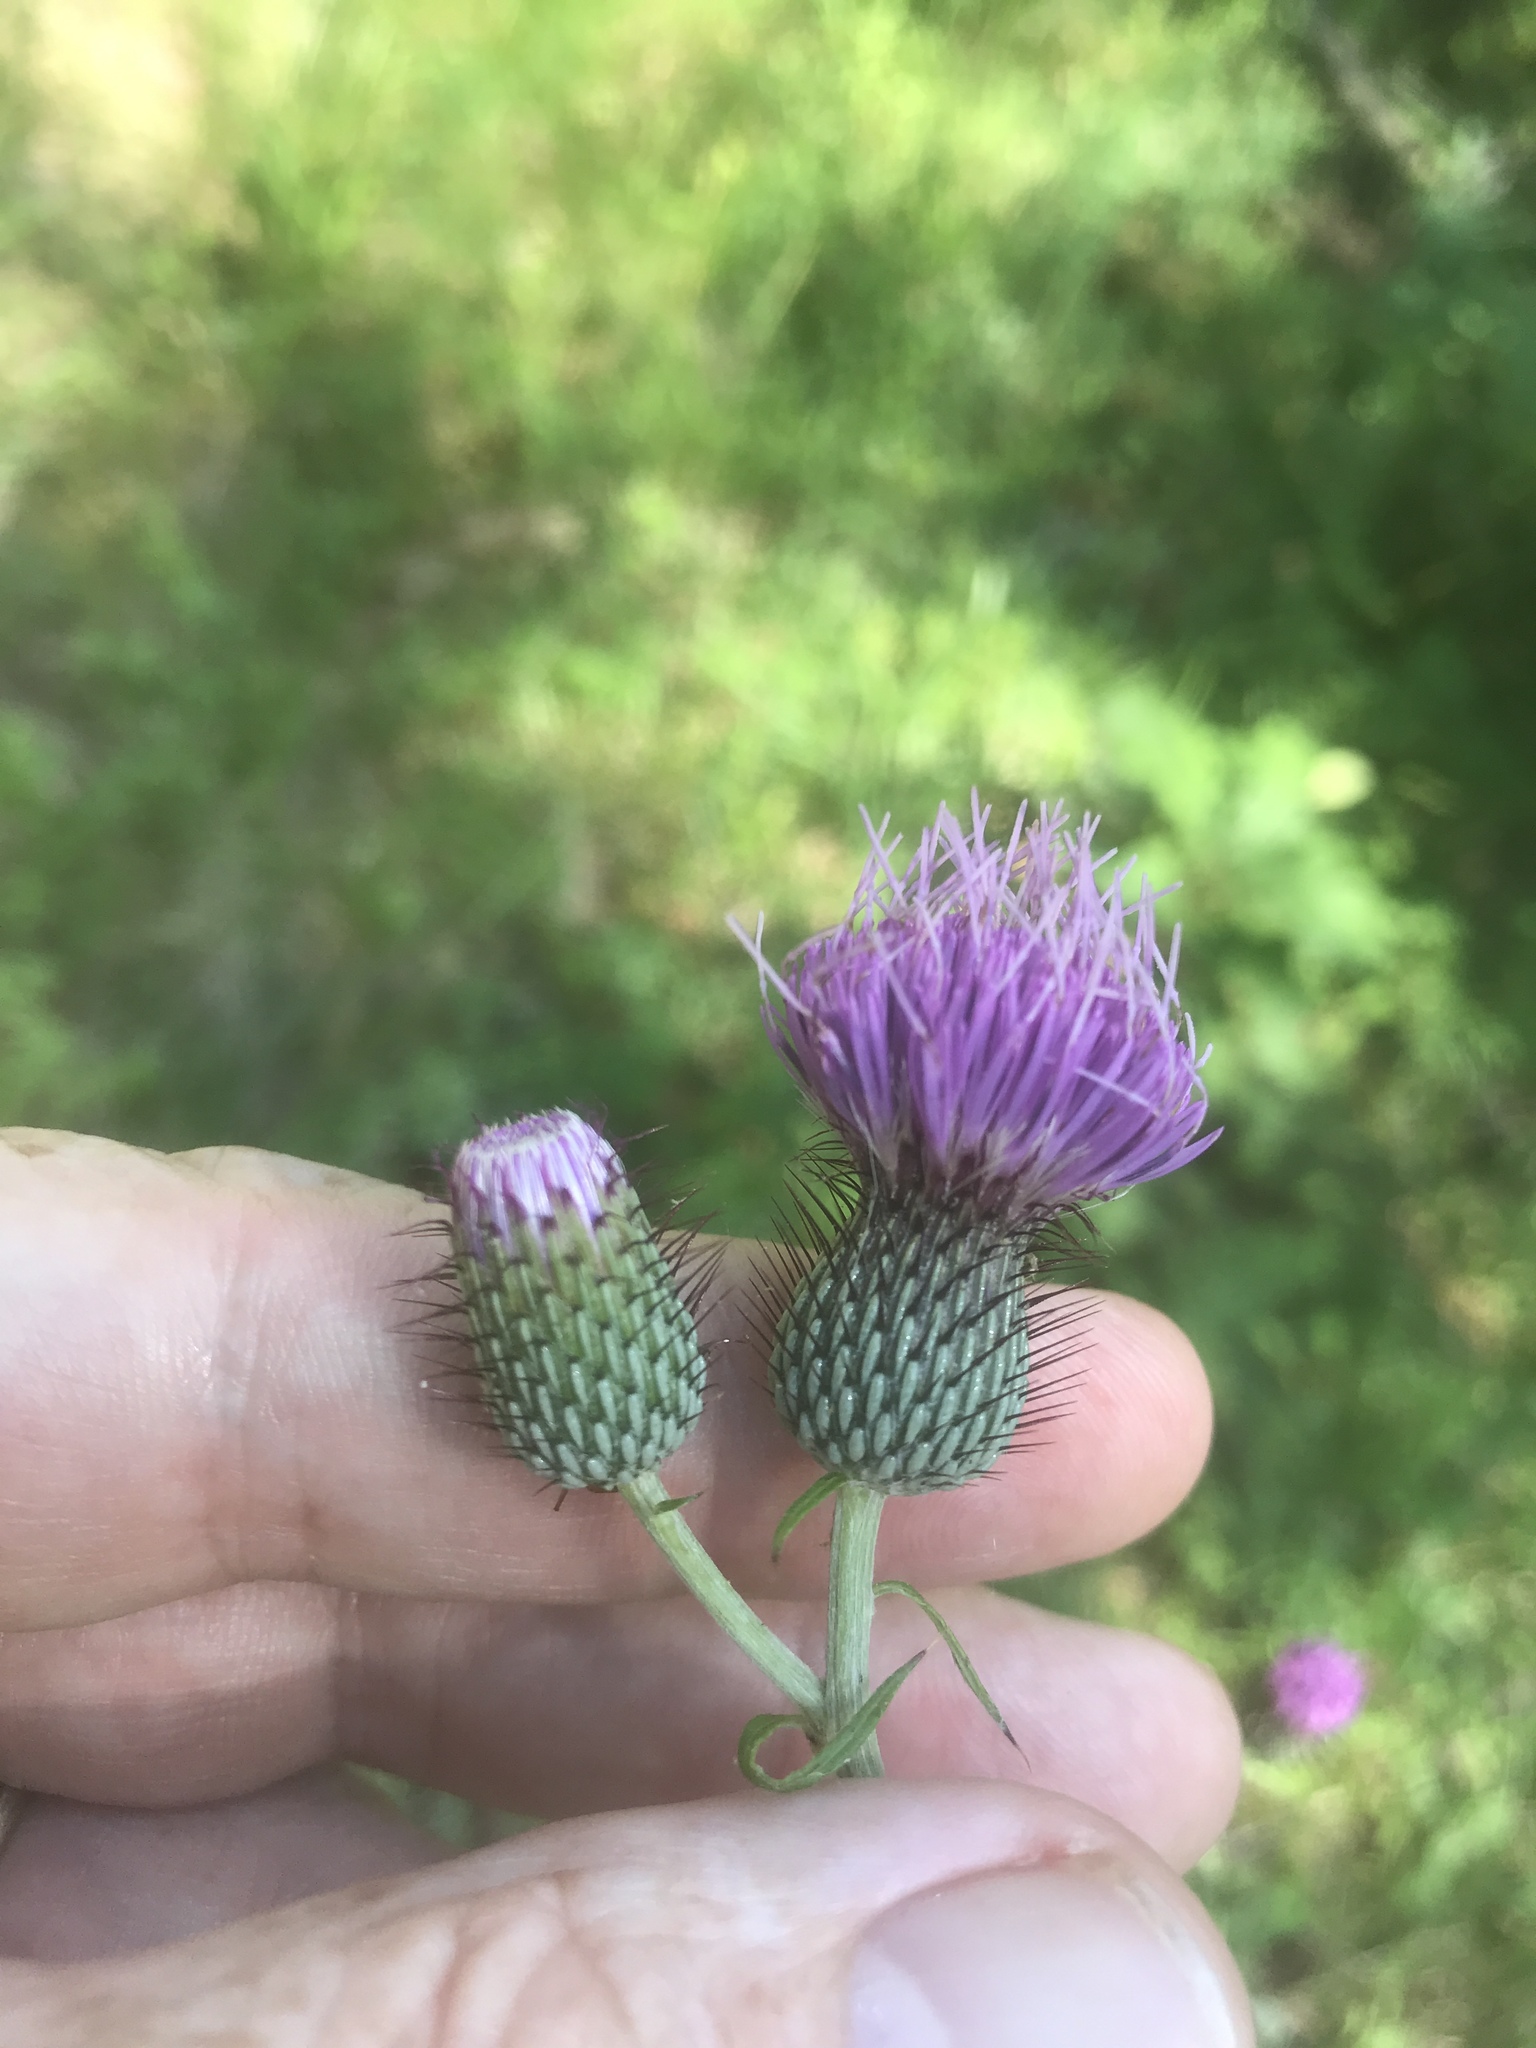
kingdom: Plantae
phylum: Tracheophyta
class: Magnoliopsida
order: Asterales
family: Asteraceae
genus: Cirsium
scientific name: Cirsium carolinianum
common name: Carolina thistle
